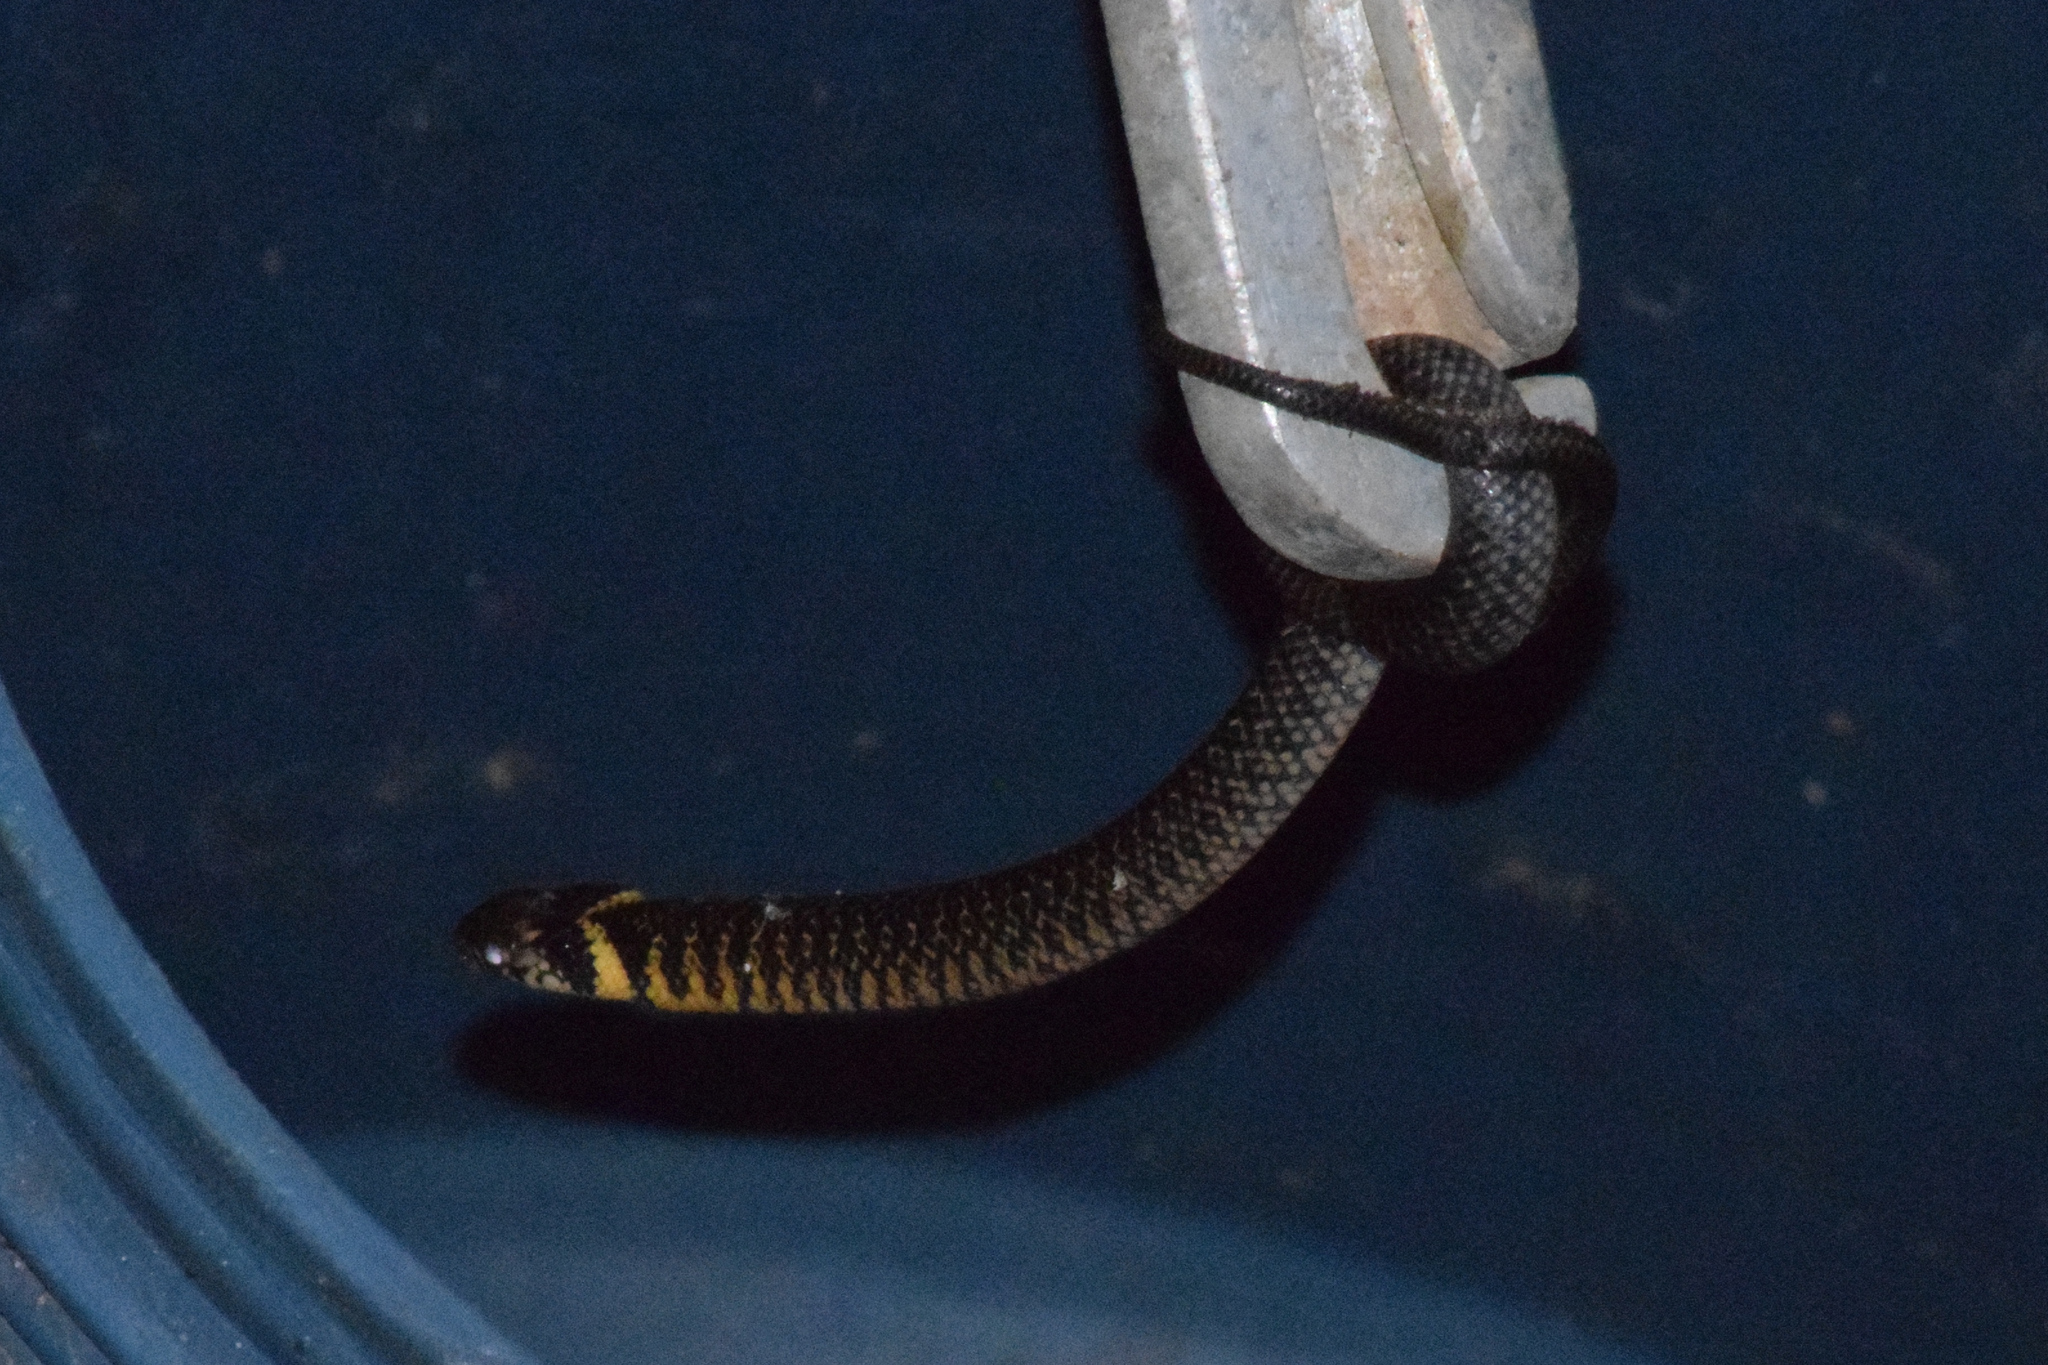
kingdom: Animalia
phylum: Chordata
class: Squamata
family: Colubridae
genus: Erythrolamprus
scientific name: Erythrolamprus miliaris
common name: Military ground snake
